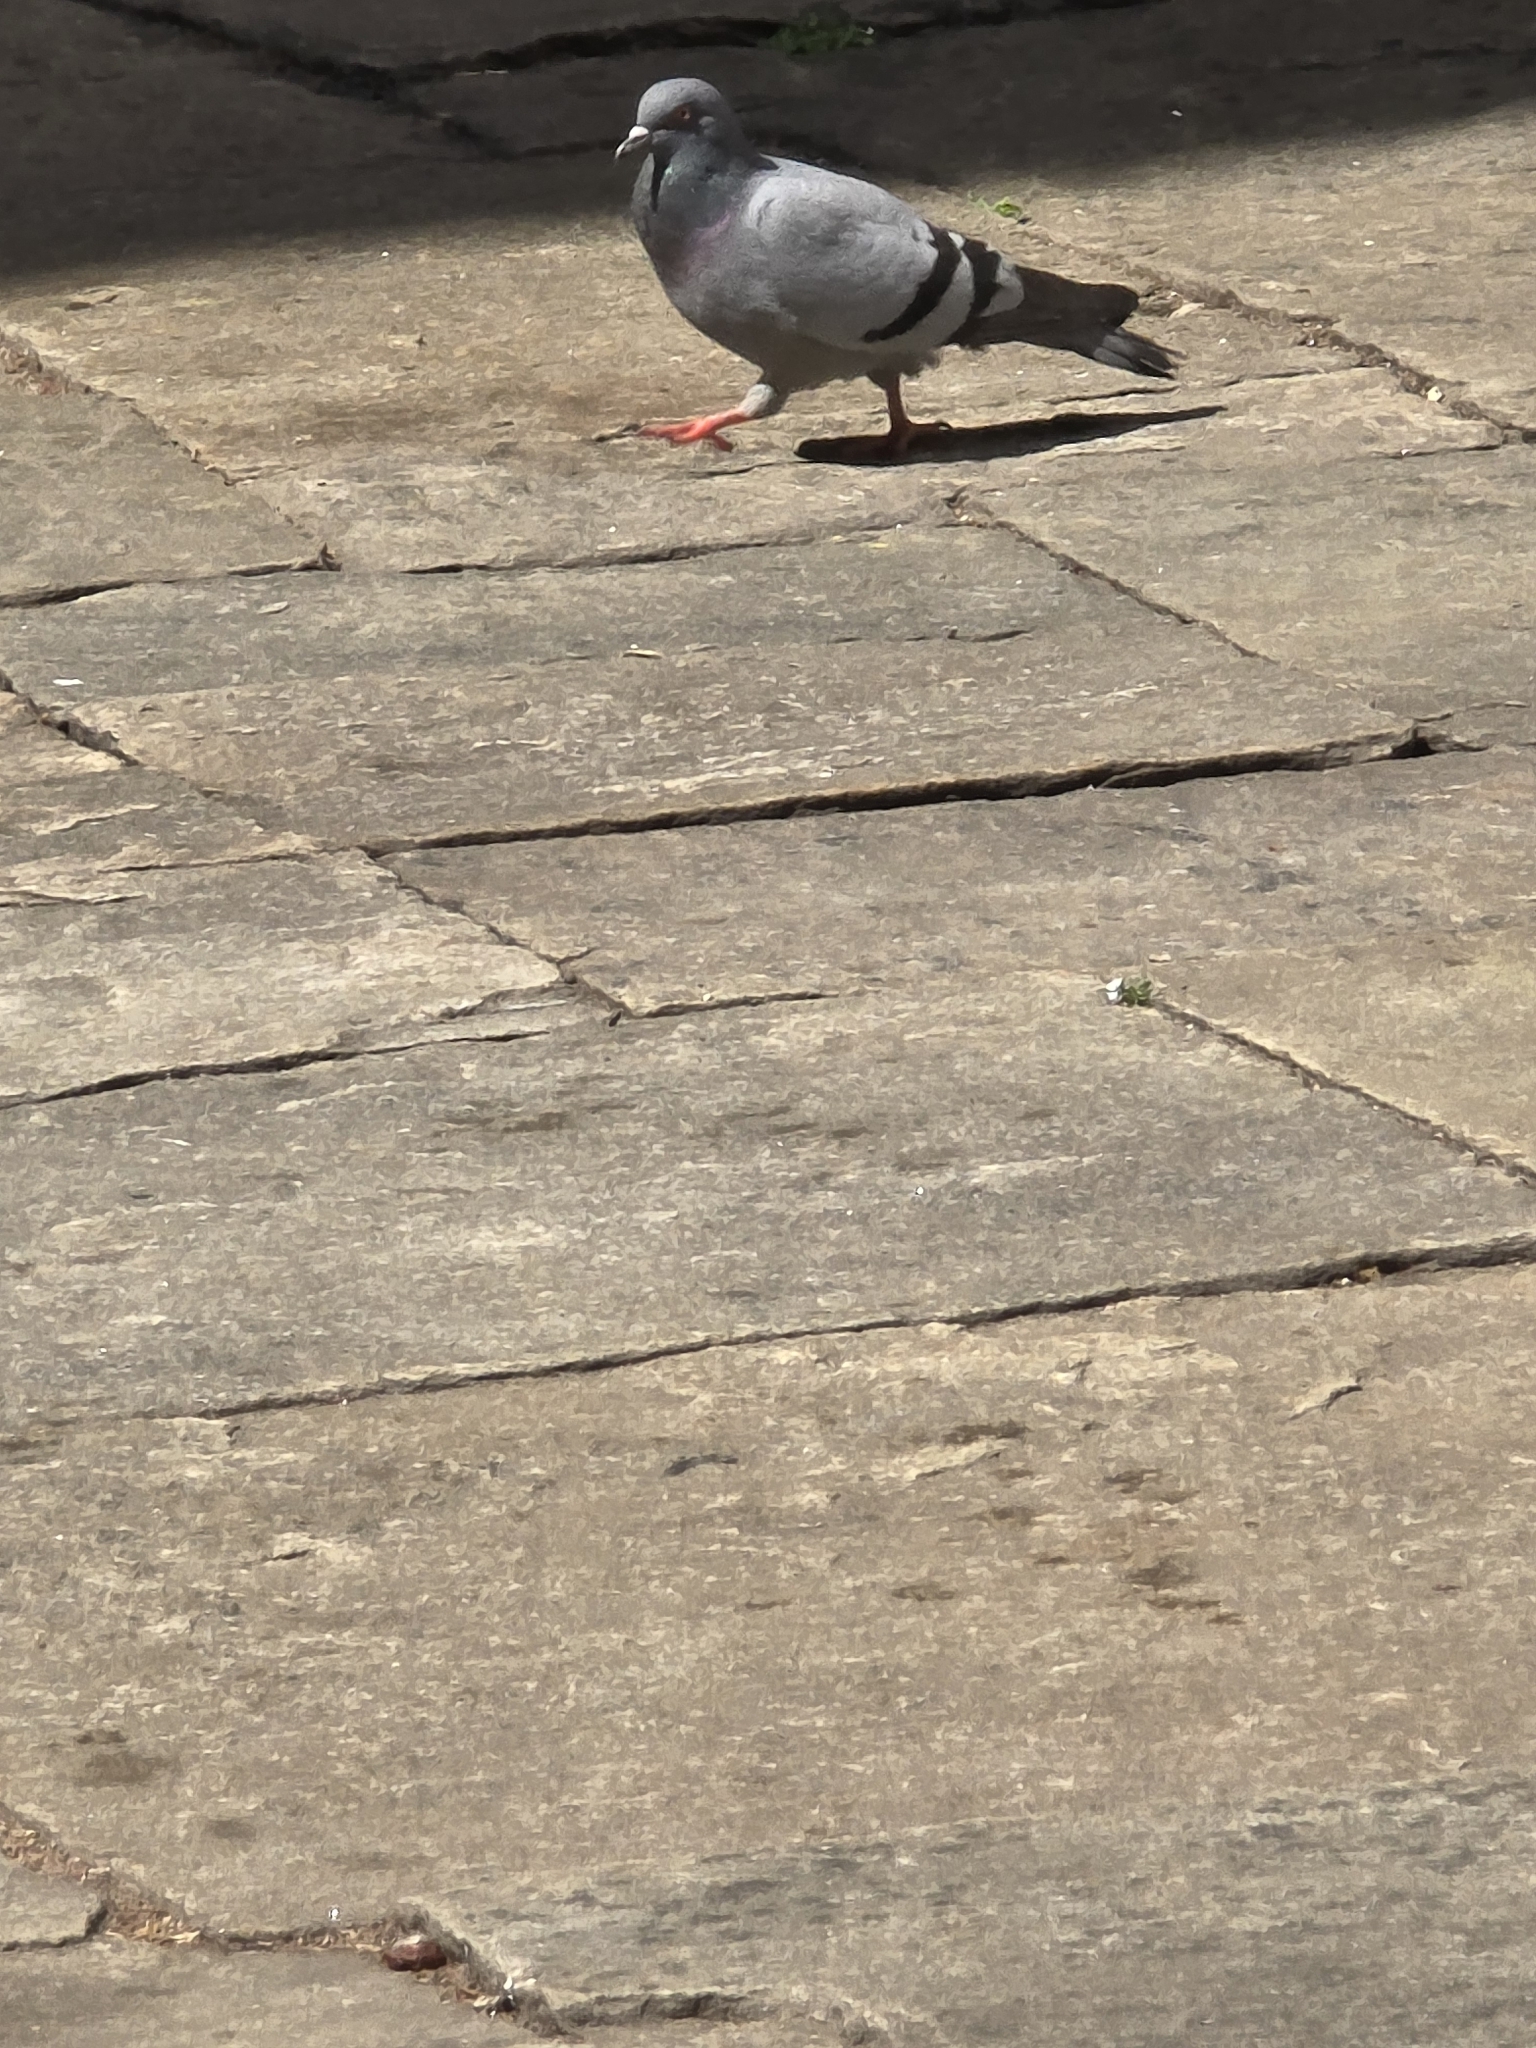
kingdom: Animalia
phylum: Chordata
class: Aves
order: Columbiformes
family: Columbidae
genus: Columba
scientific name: Columba livia
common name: Rock pigeon
